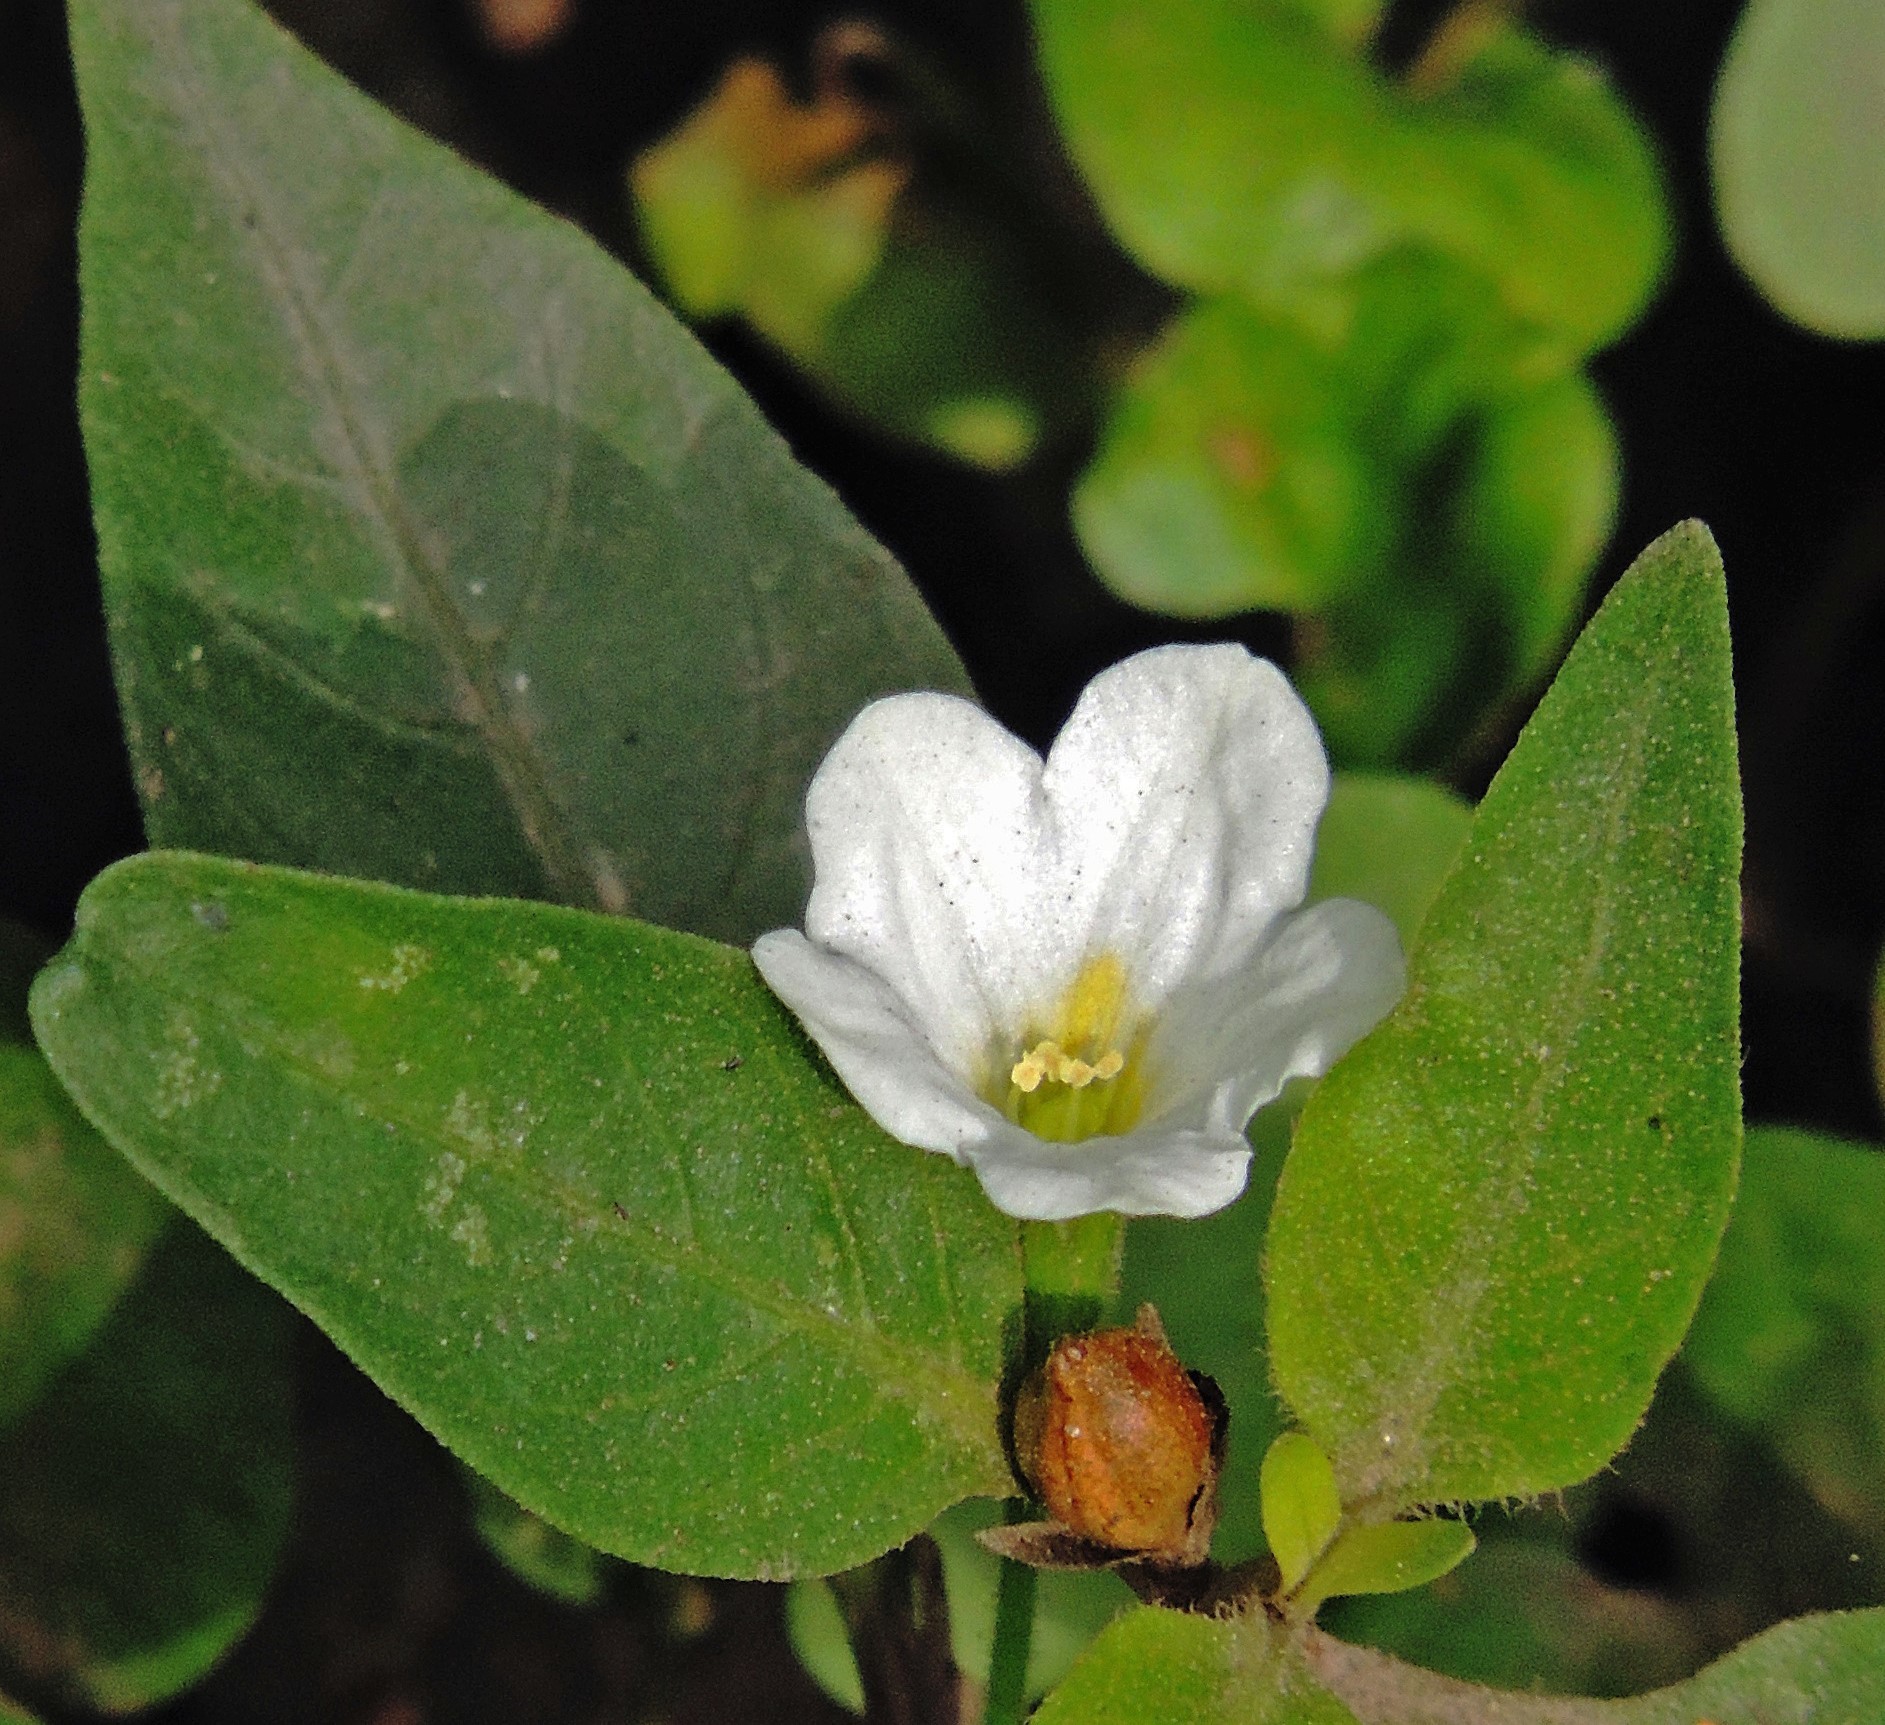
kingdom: Plantae
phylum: Tracheophyta
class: Magnoliopsida
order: Solanales
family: Solanaceae
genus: Salpiglossis
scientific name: Salpiglossis anomala
